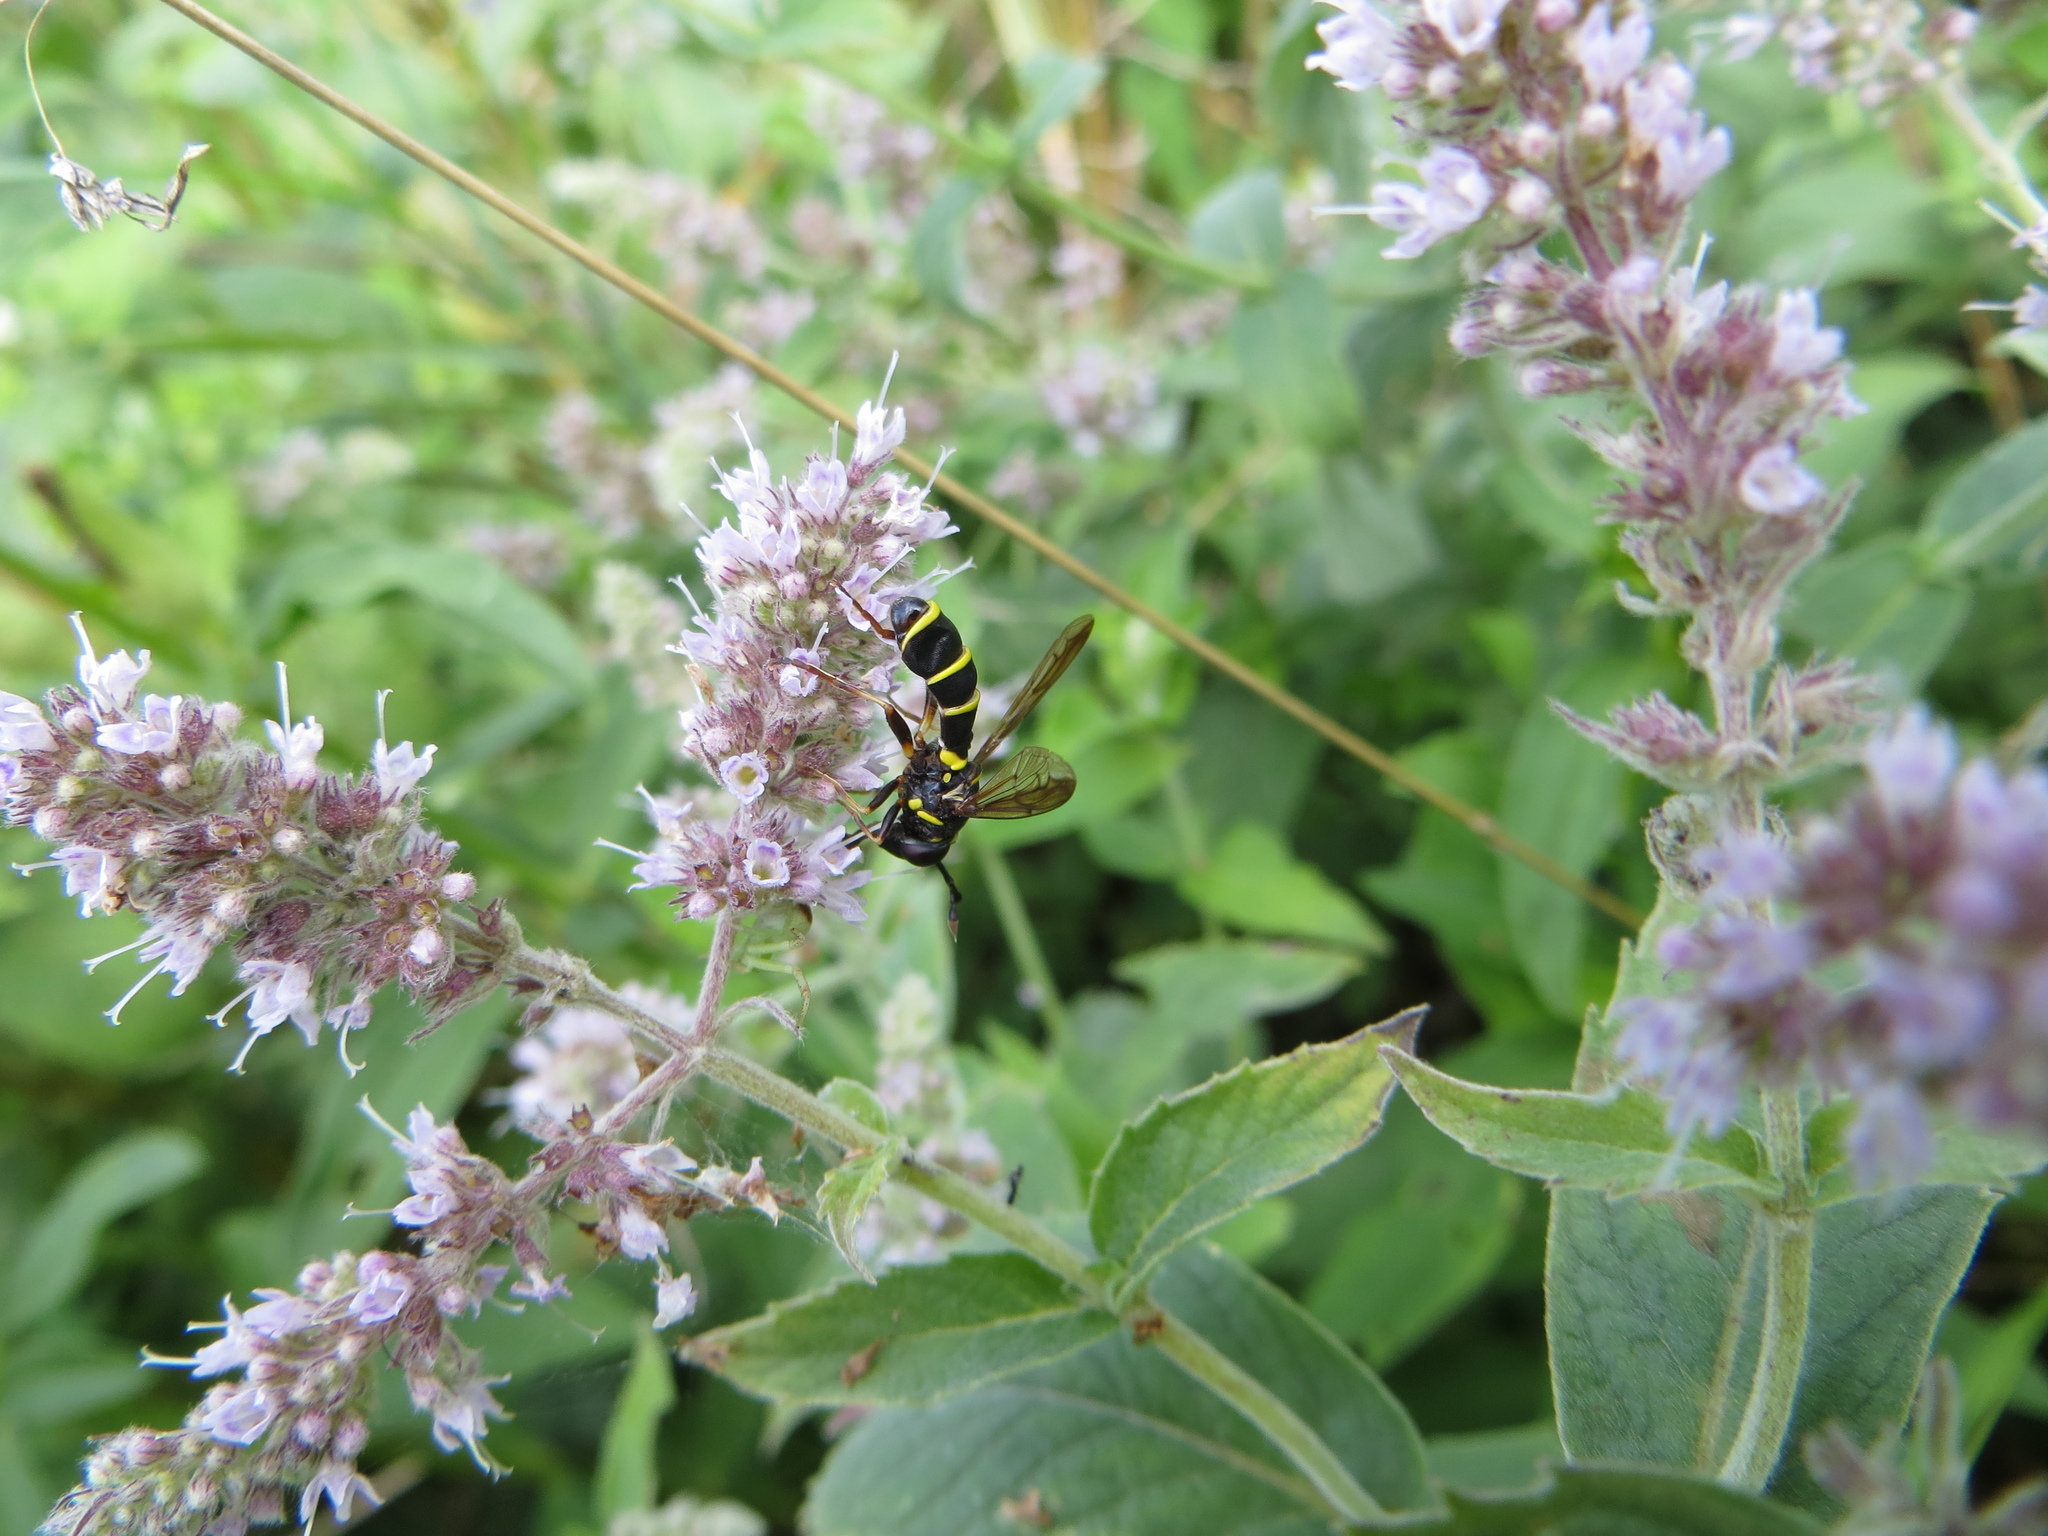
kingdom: Animalia
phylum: Arthropoda
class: Insecta
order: Diptera
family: Syrphidae
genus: Ceriana
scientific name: Ceriana conopsoides
